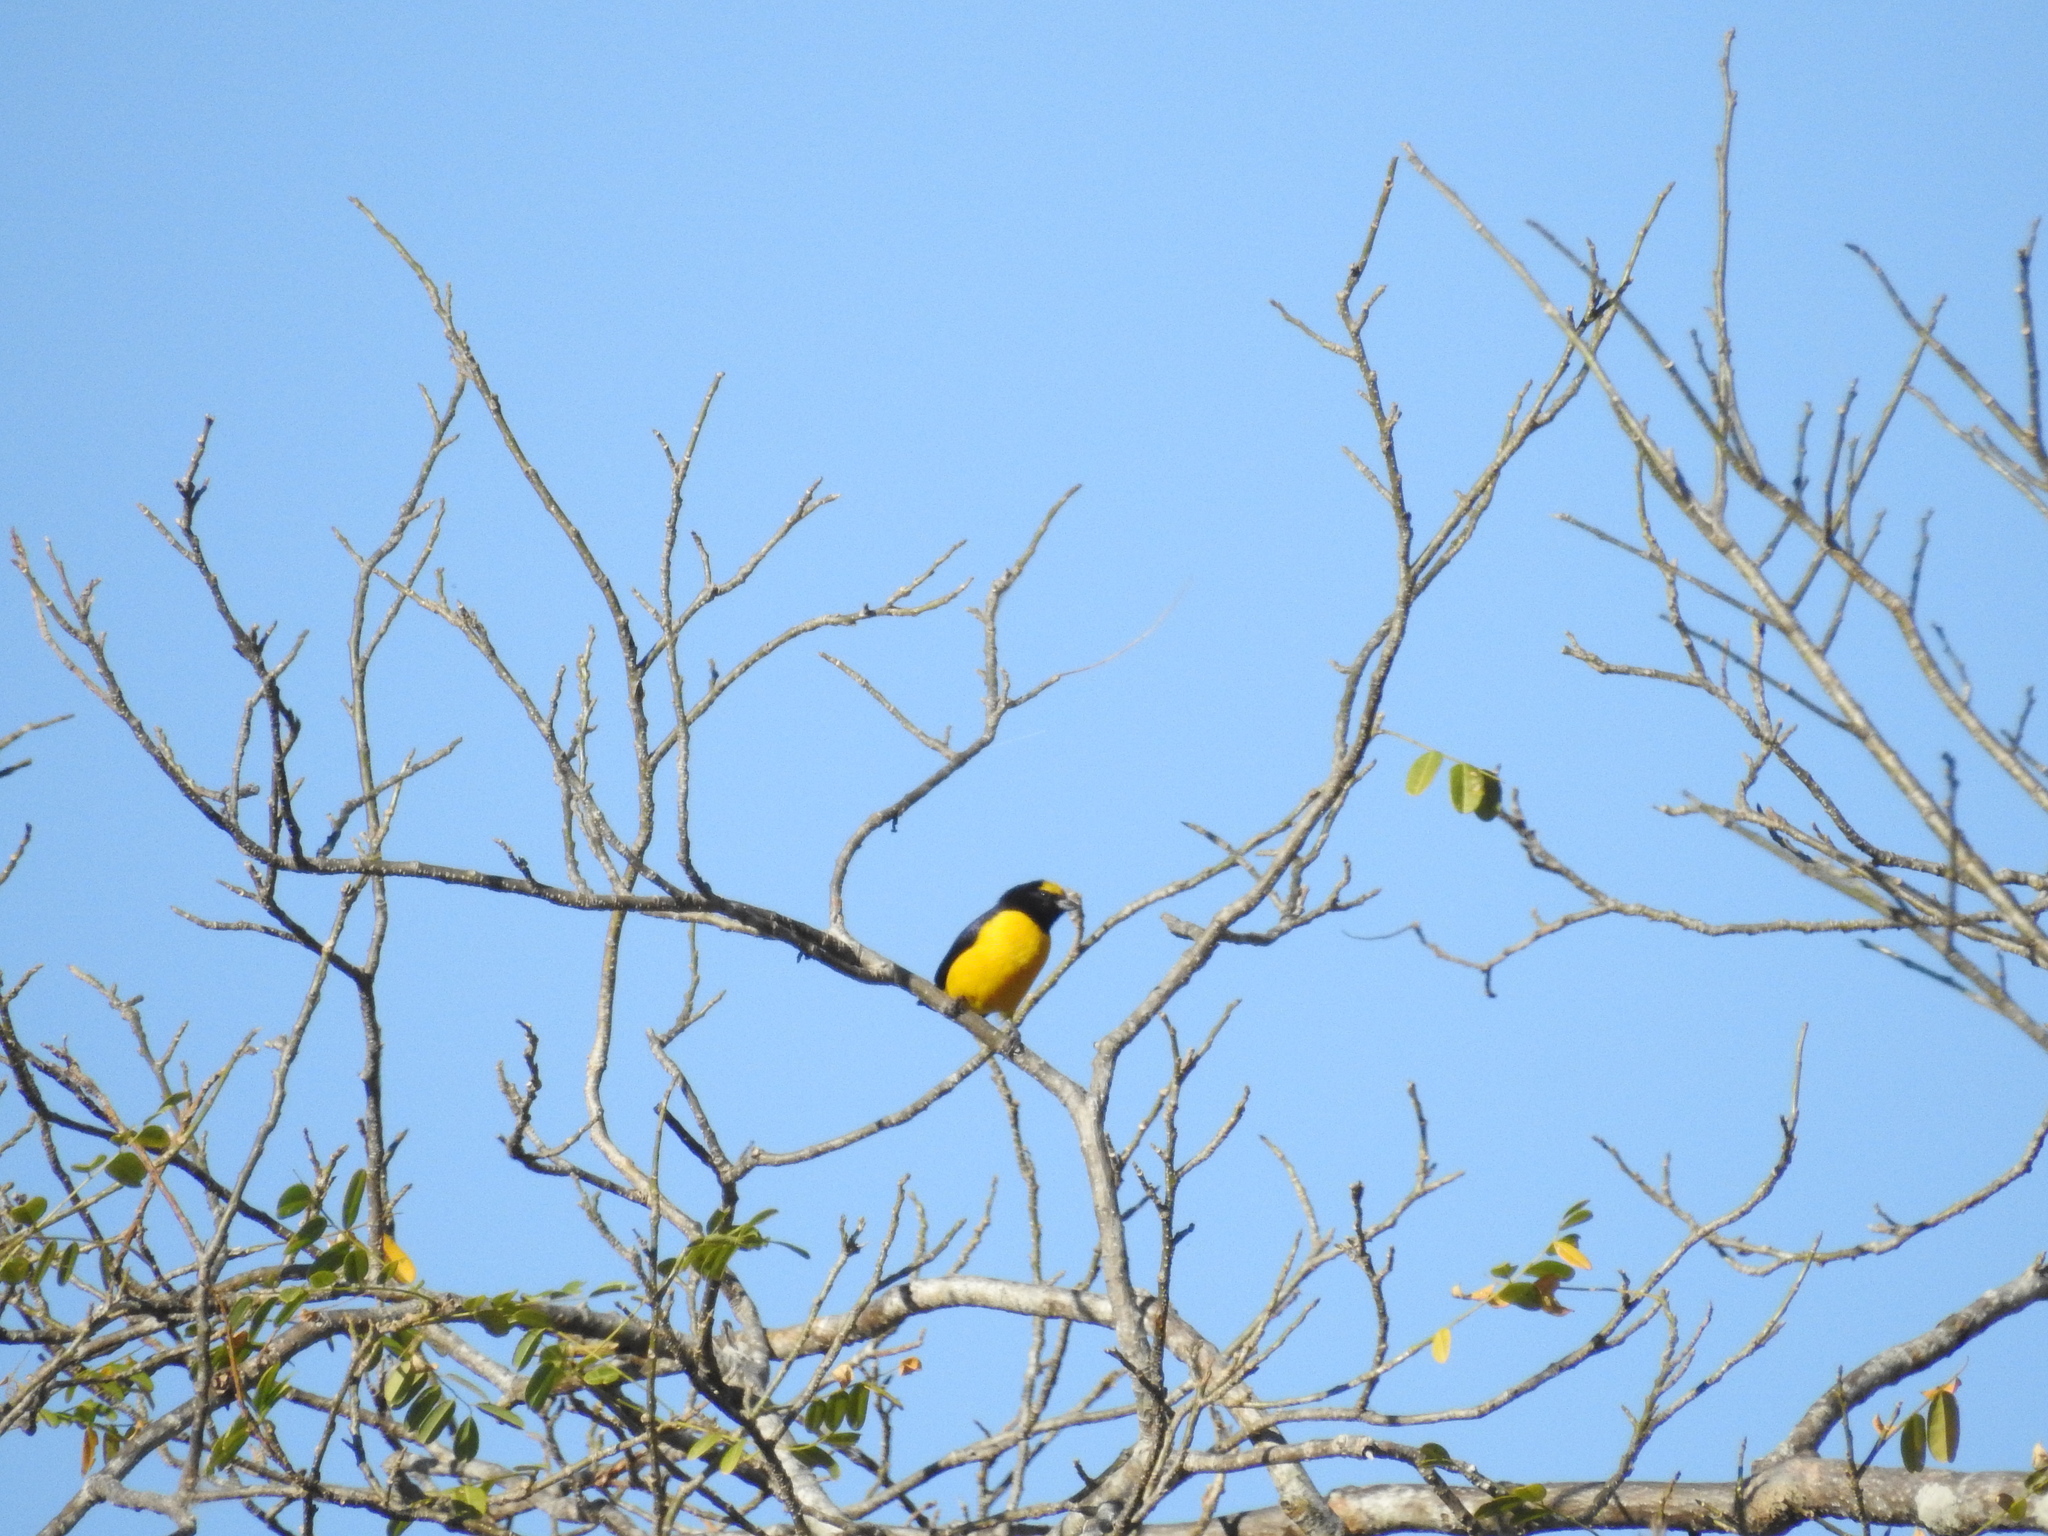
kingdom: Animalia
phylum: Chordata
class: Aves
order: Passeriformes
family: Fringillidae
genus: Euphonia
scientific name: Euphonia affinis
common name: Scrub euphonia
